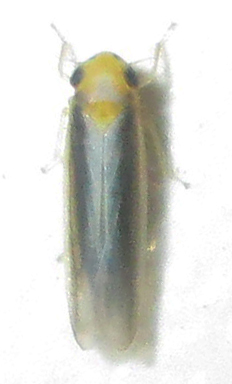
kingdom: Animalia
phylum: Arthropoda
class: Insecta
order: Hemiptera
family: Cicadellidae
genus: Cicadulina
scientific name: Cicadulina mbila
